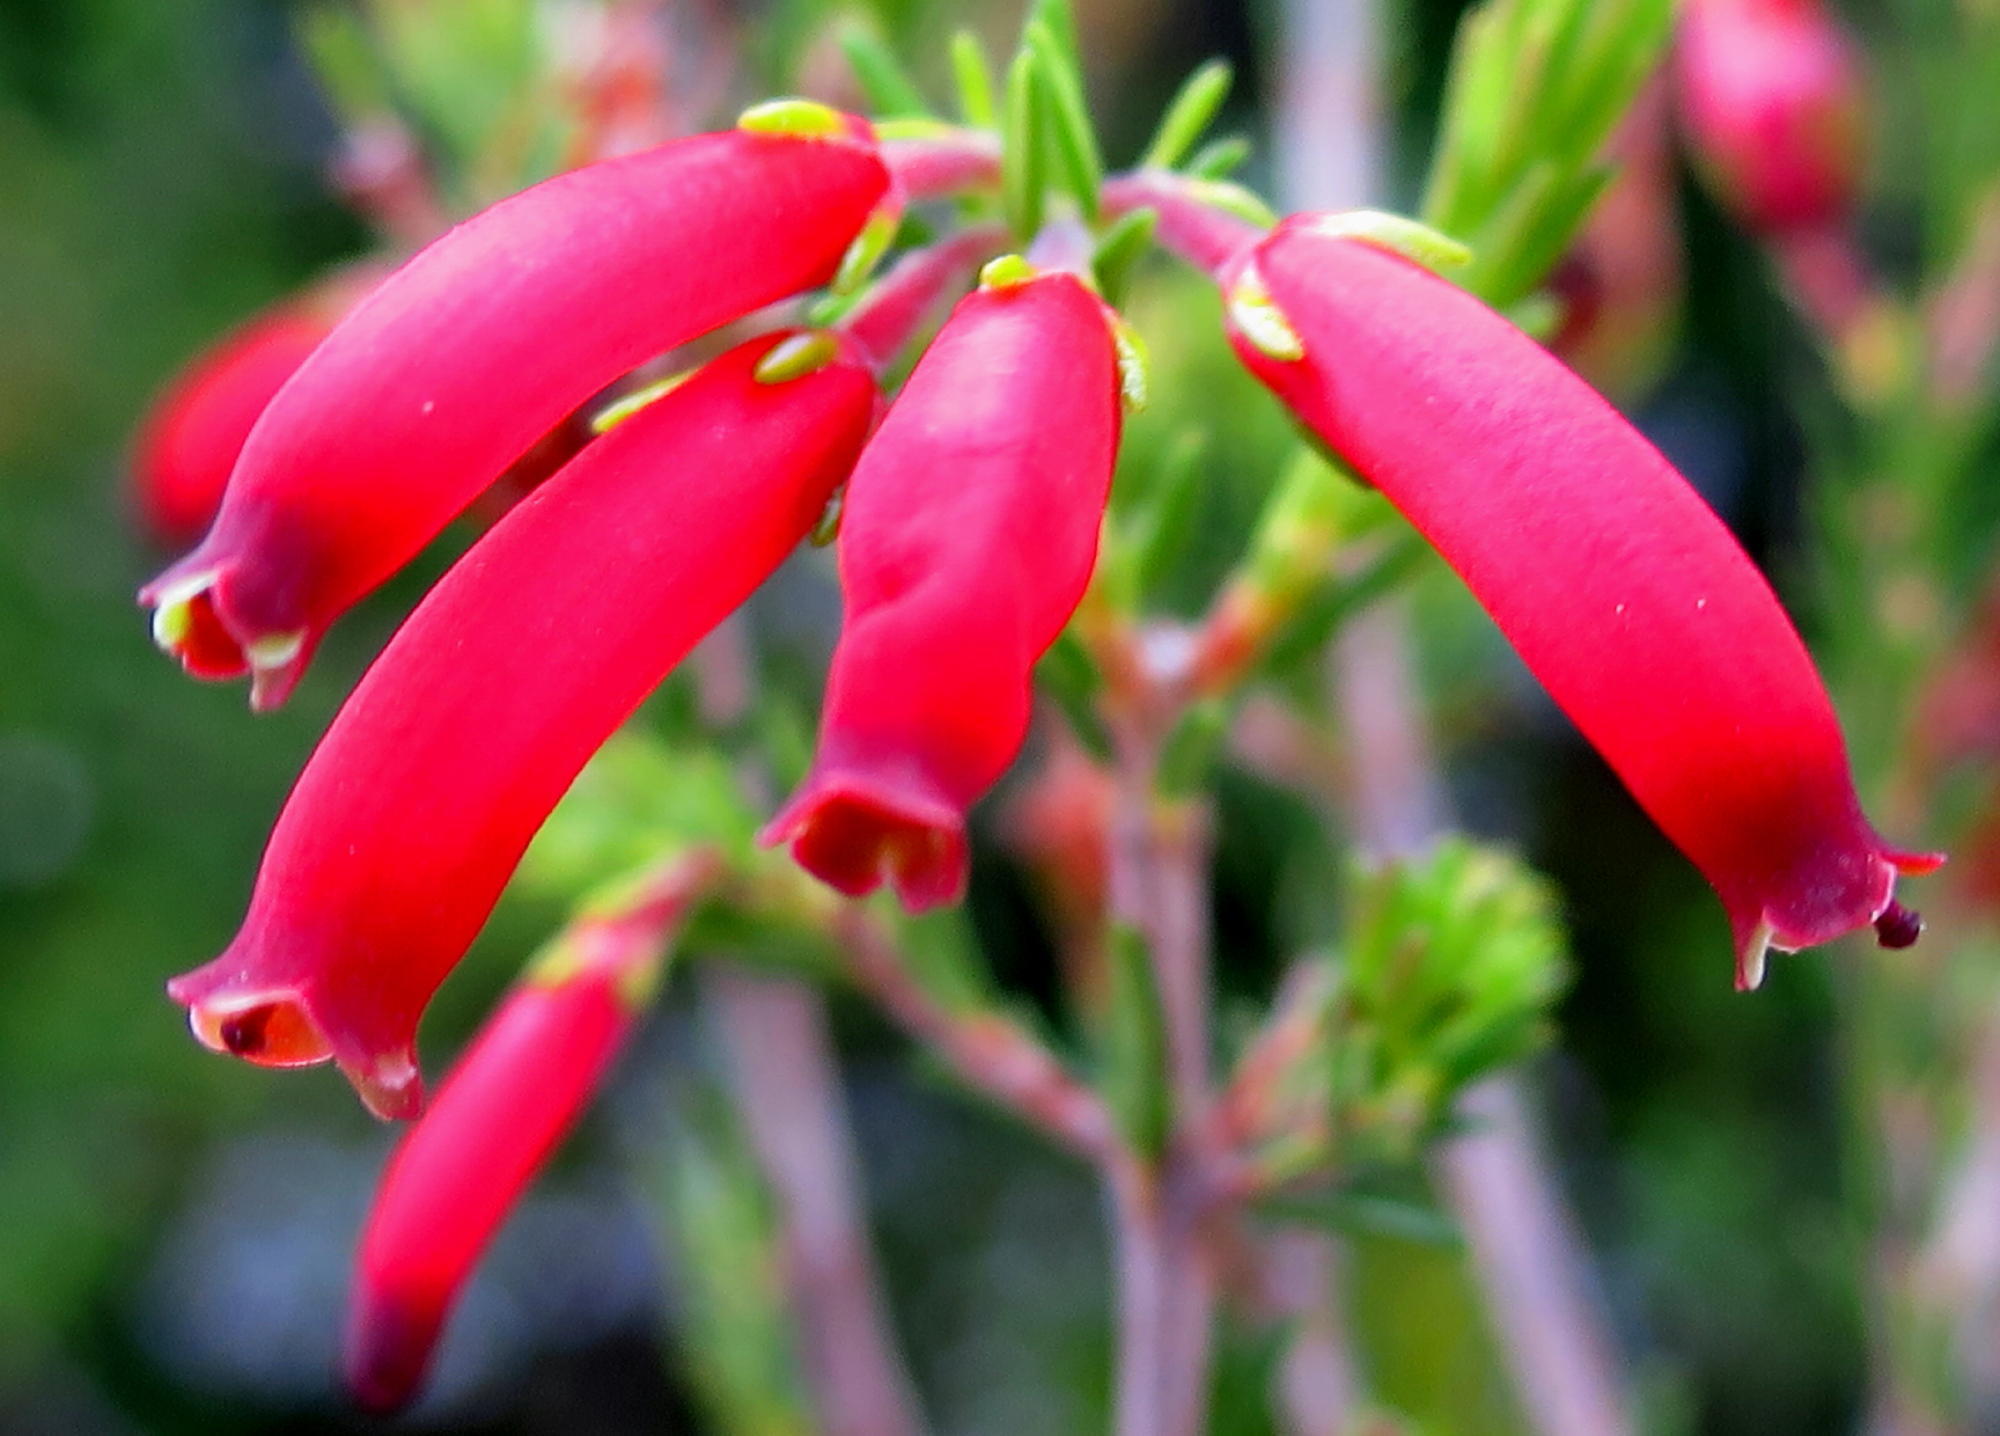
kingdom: Plantae
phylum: Tracheophyta
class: Magnoliopsida
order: Ericales
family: Ericaceae
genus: Erica
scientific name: Erica chloroloma
